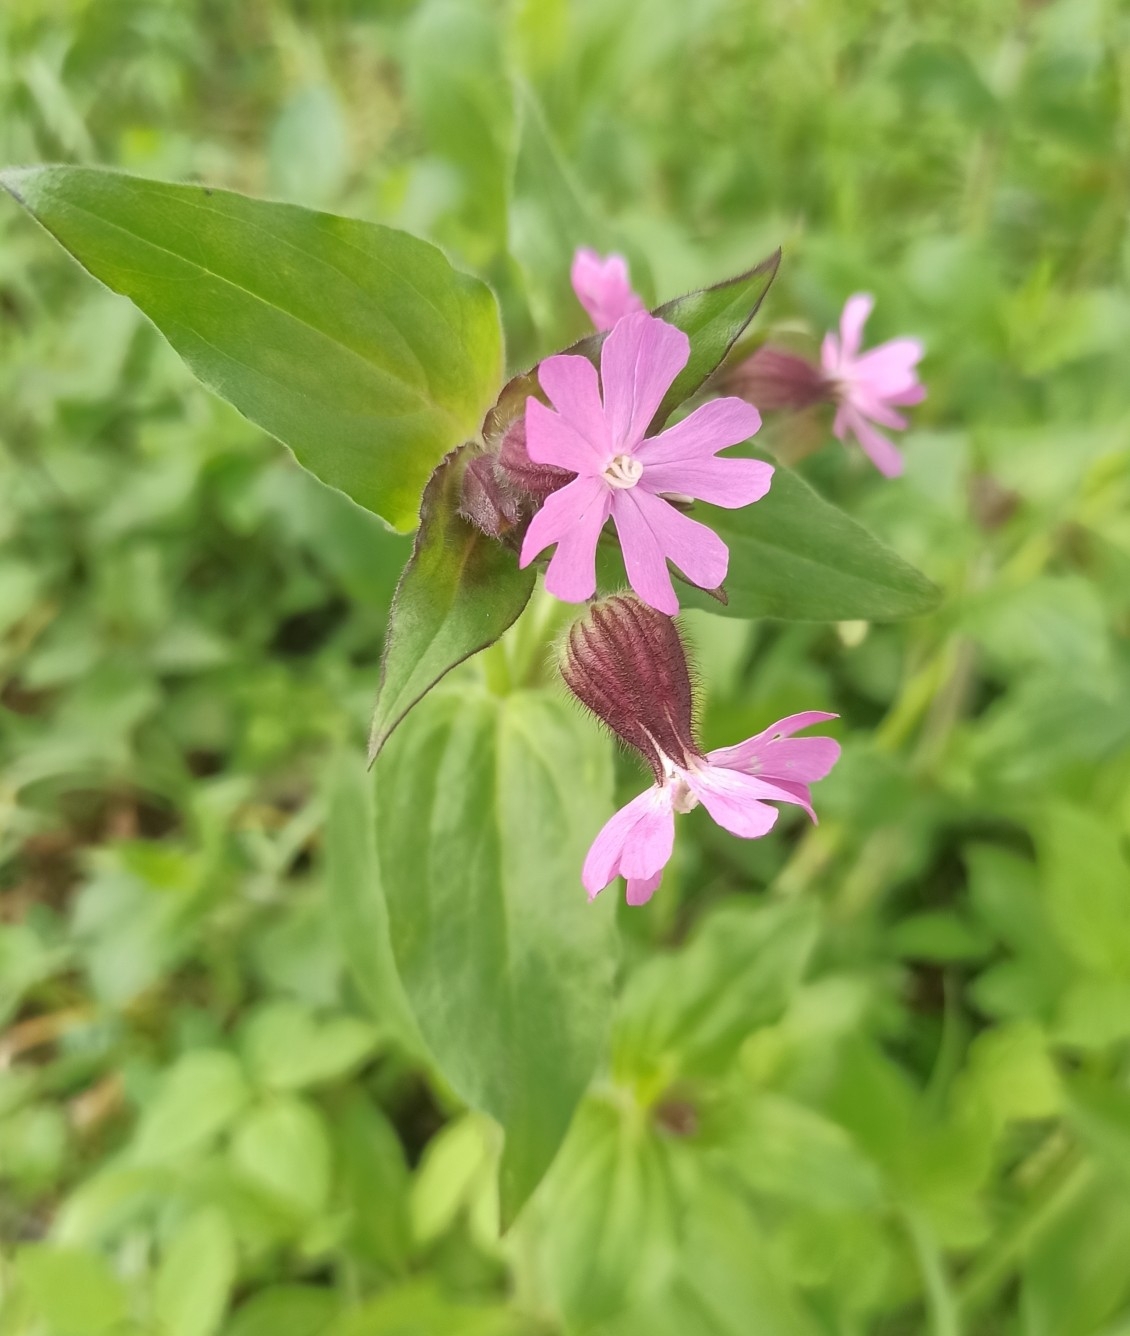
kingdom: Plantae
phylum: Tracheophyta
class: Magnoliopsida
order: Caryophyllales
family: Caryophyllaceae
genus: Silene
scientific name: Silene dioica
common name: Red campion
